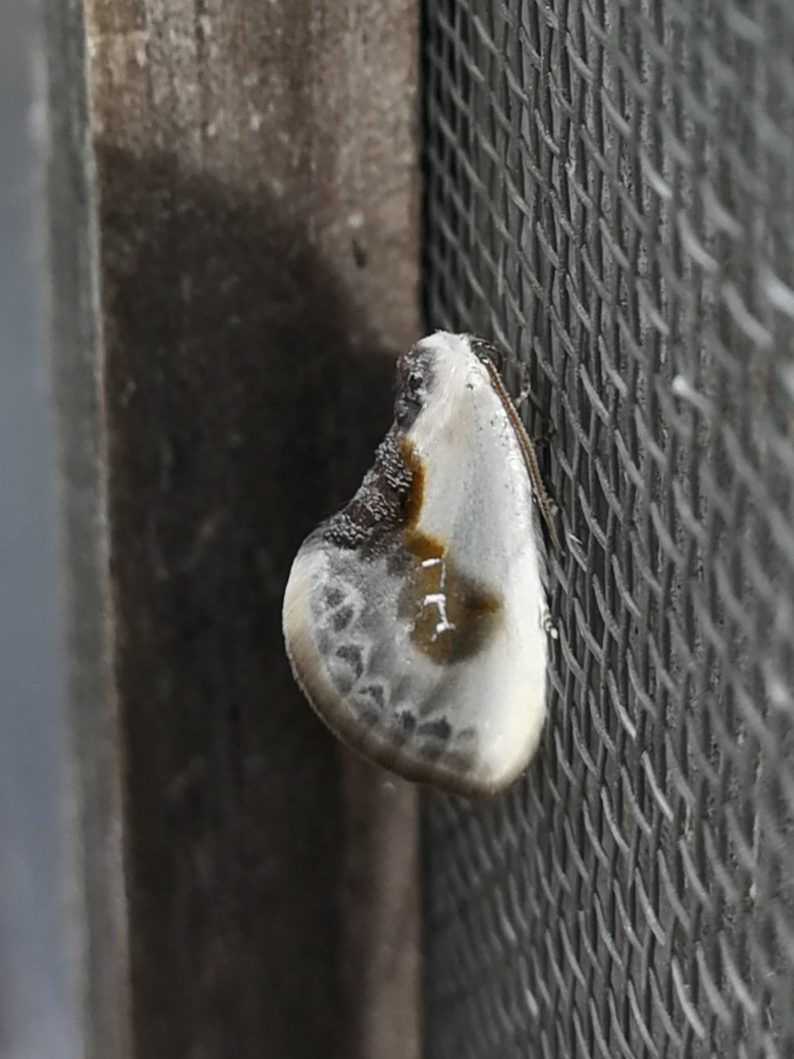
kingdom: Animalia
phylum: Arthropoda
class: Insecta
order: Lepidoptera
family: Drepanidae
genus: Cilix
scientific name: Cilix glaucata
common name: Chinese character
